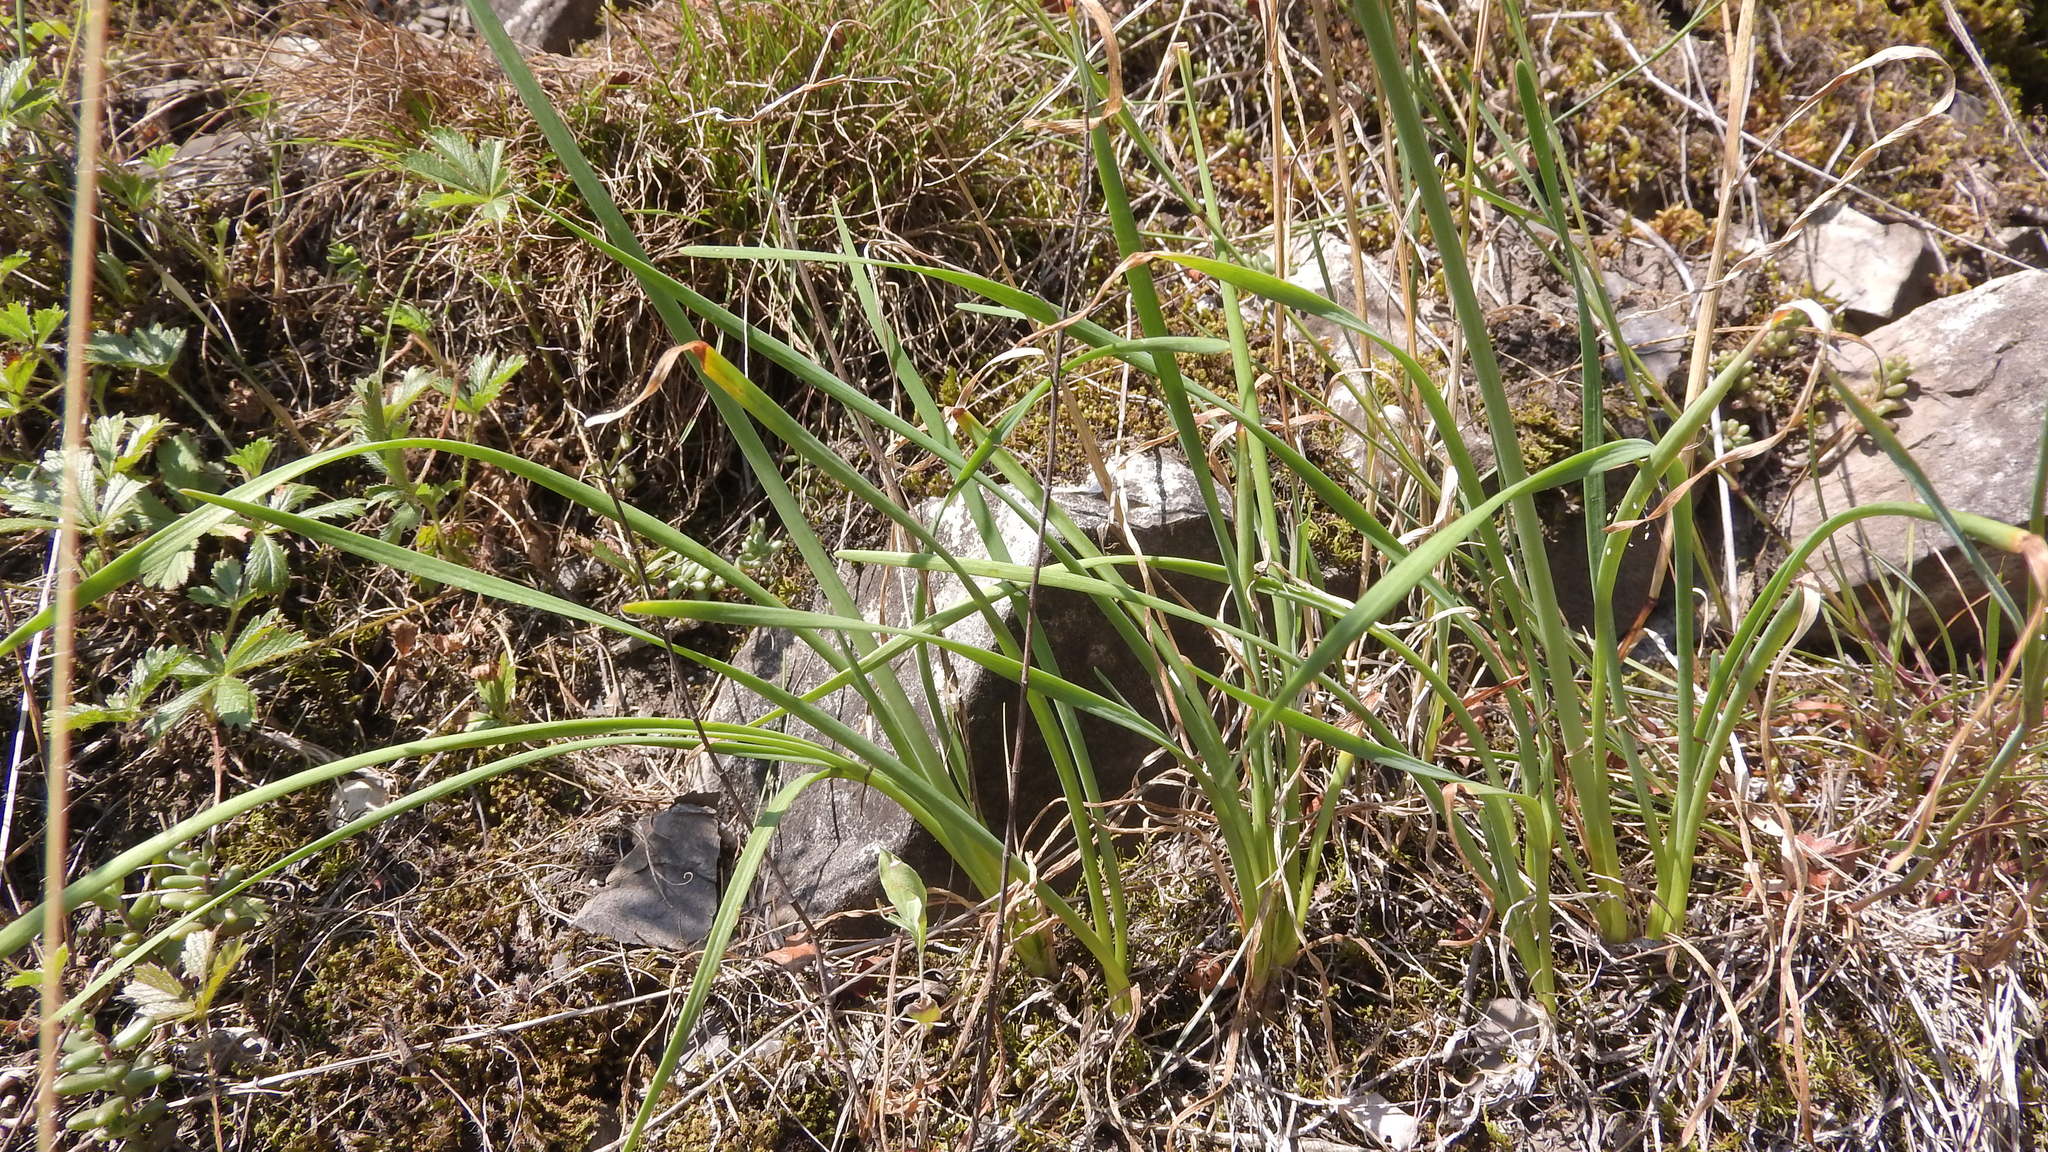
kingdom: Plantae
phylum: Tracheophyta
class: Liliopsida
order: Asparagales
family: Amaryllidaceae
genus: Allium
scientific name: Allium lusitanicum
